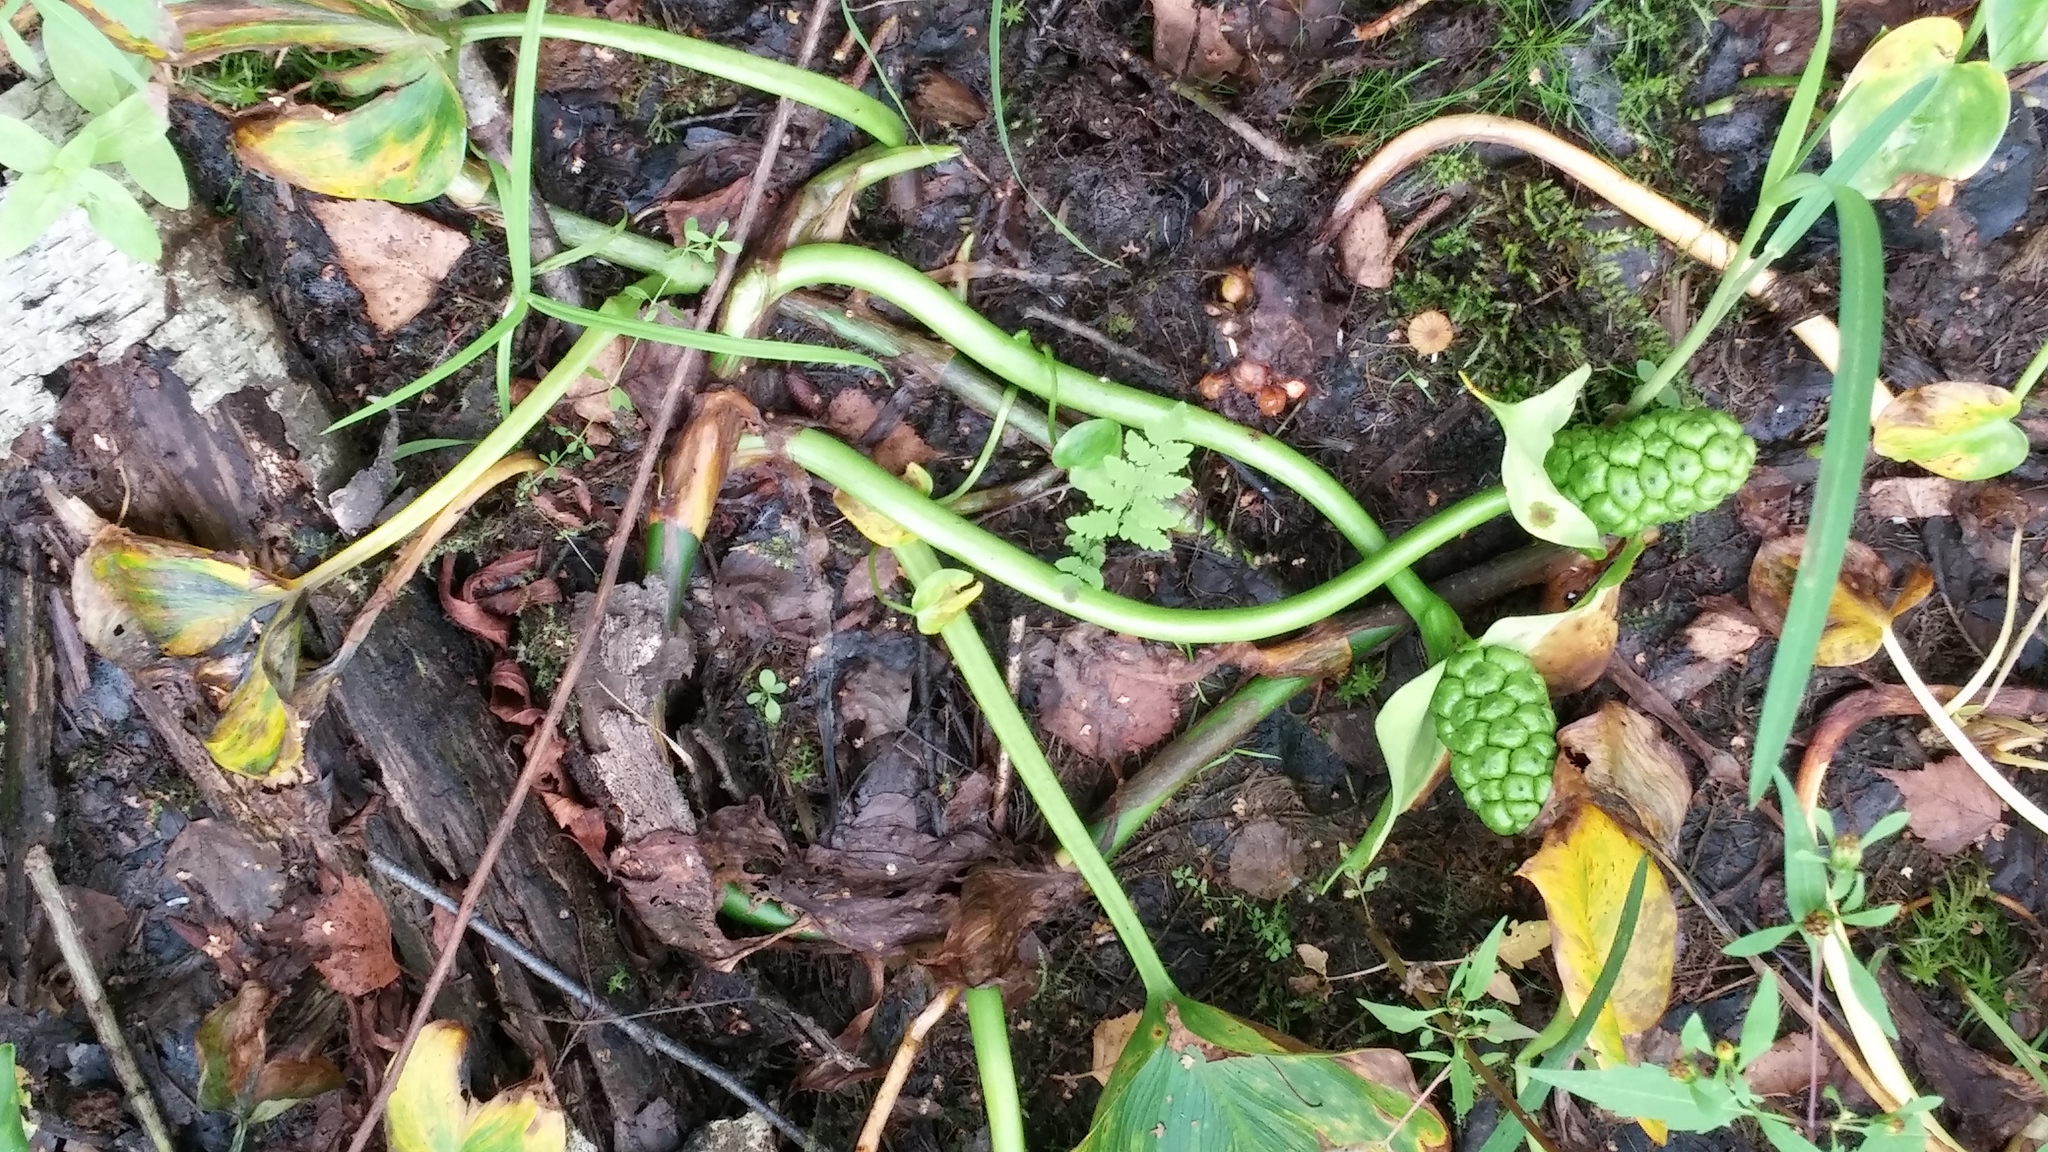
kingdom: Plantae
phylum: Tracheophyta
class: Liliopsida
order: Alismatales
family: Araceae
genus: Calla
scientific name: Calla palustris
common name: Bog arum
